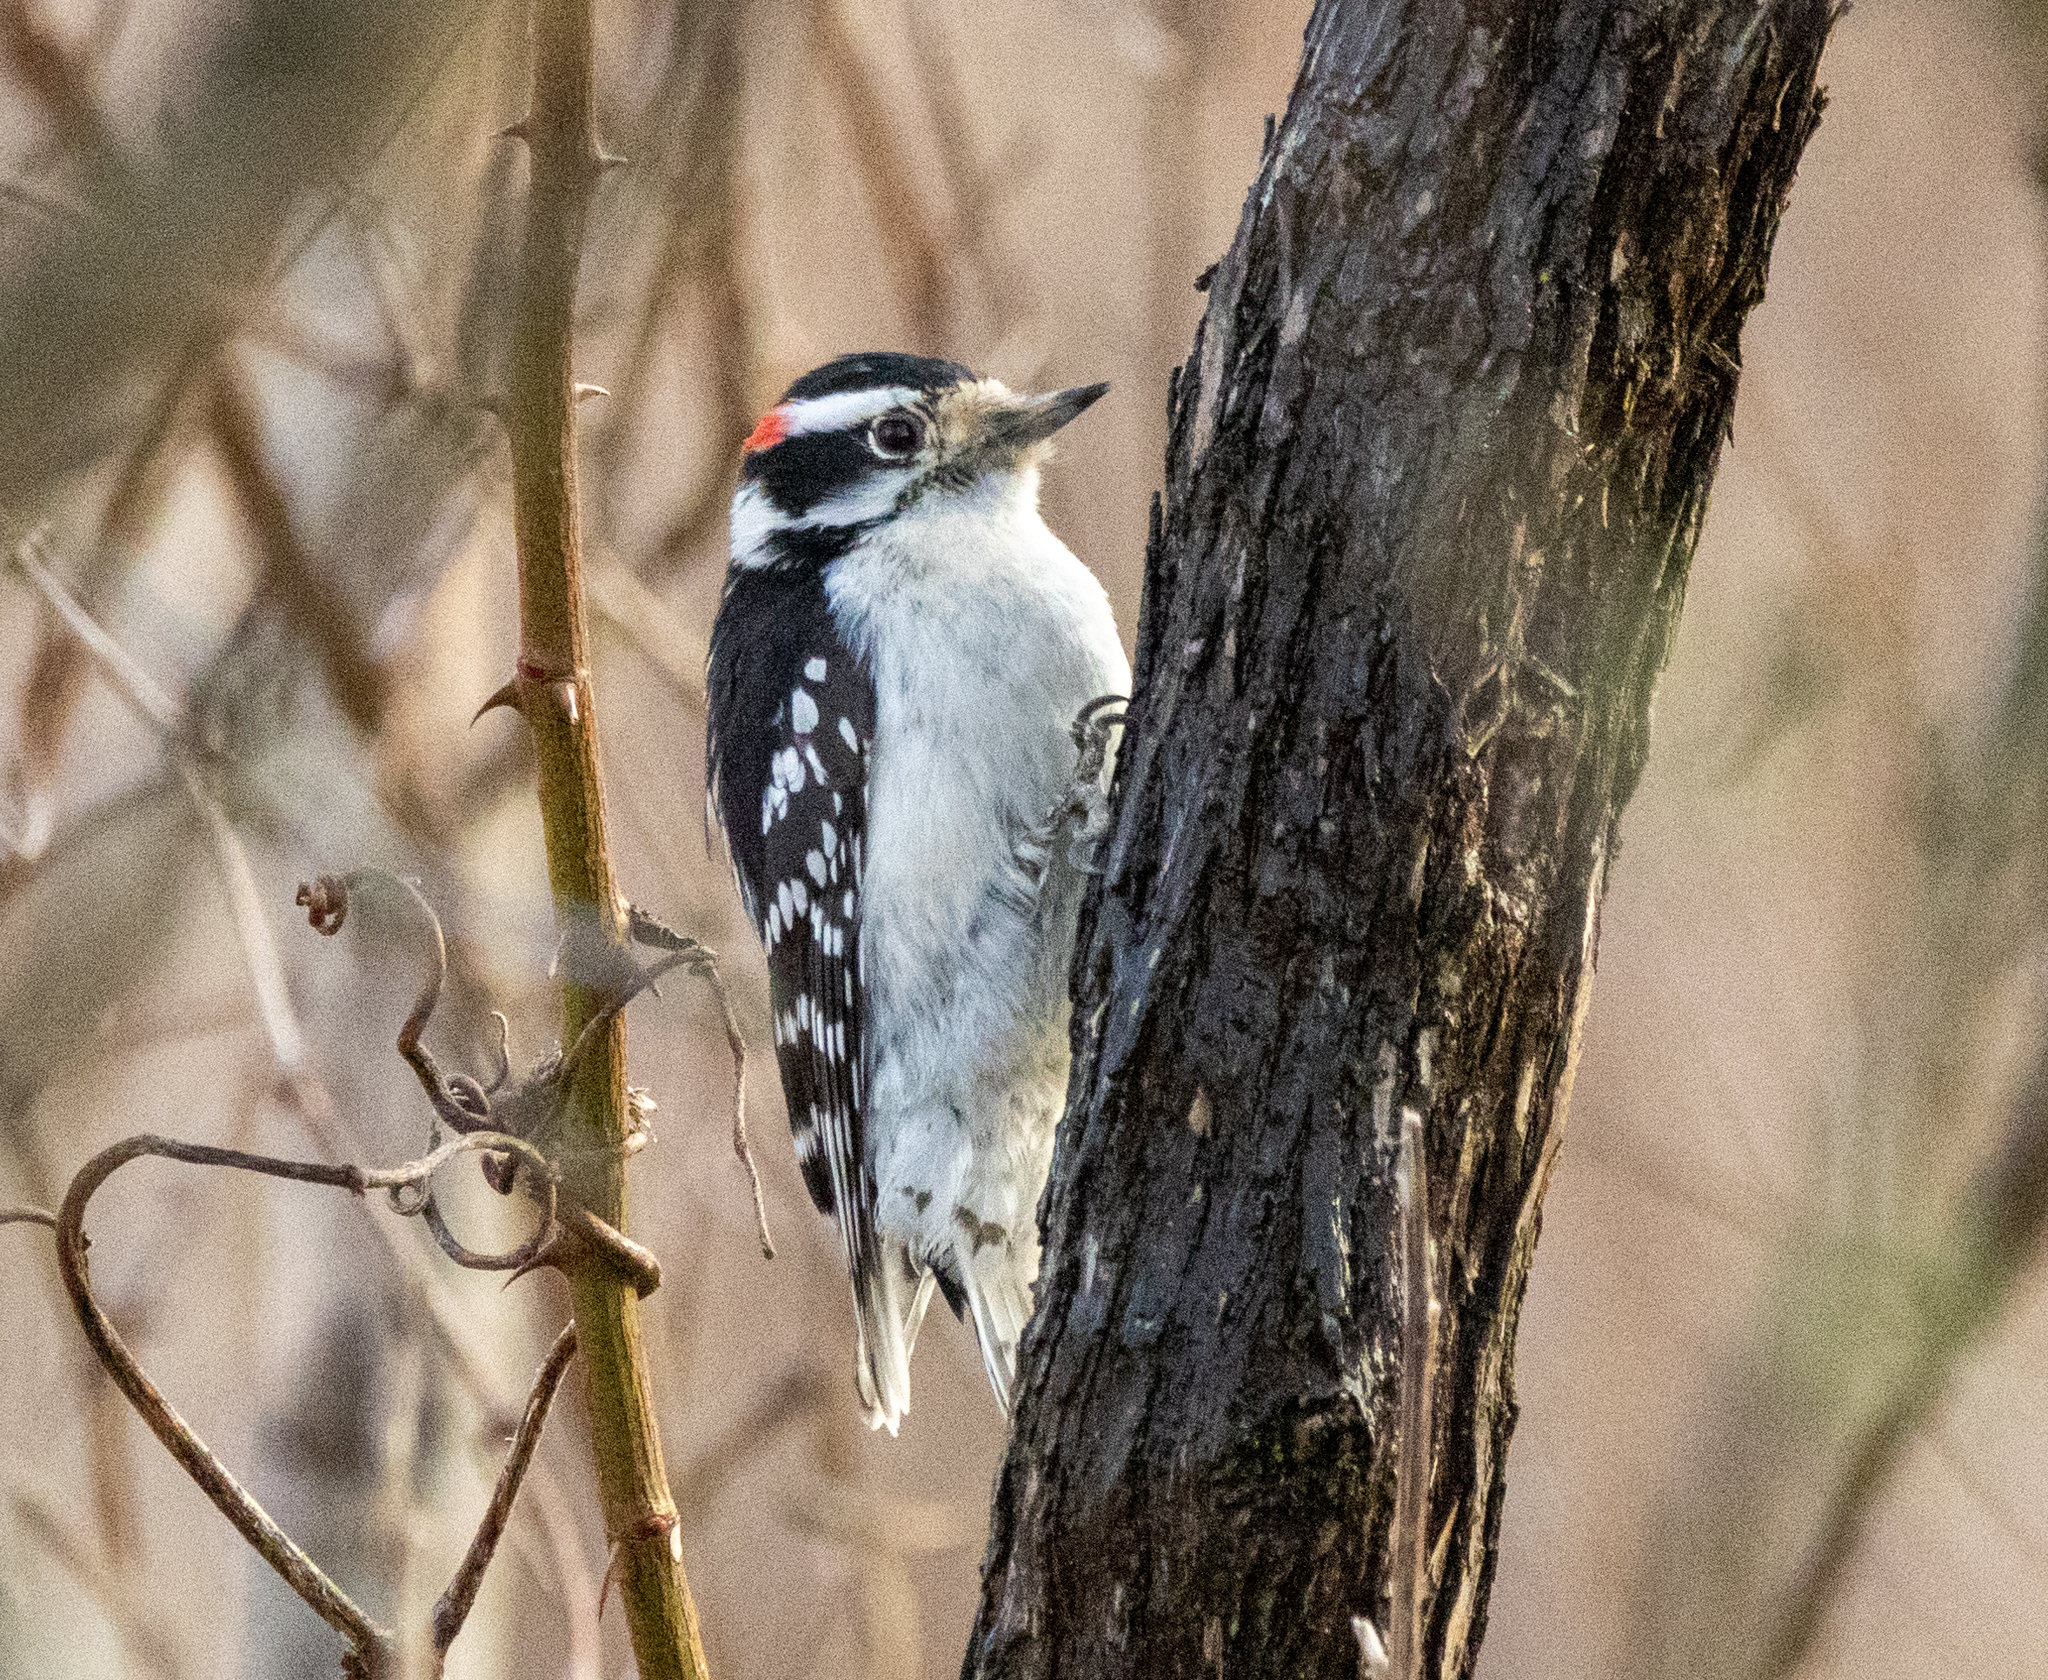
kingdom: Animalia
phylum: Chordata
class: Aves
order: Piciformes
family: Picidae
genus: Dryobates
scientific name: Dryobates pubescens
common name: Downy woodpecker
